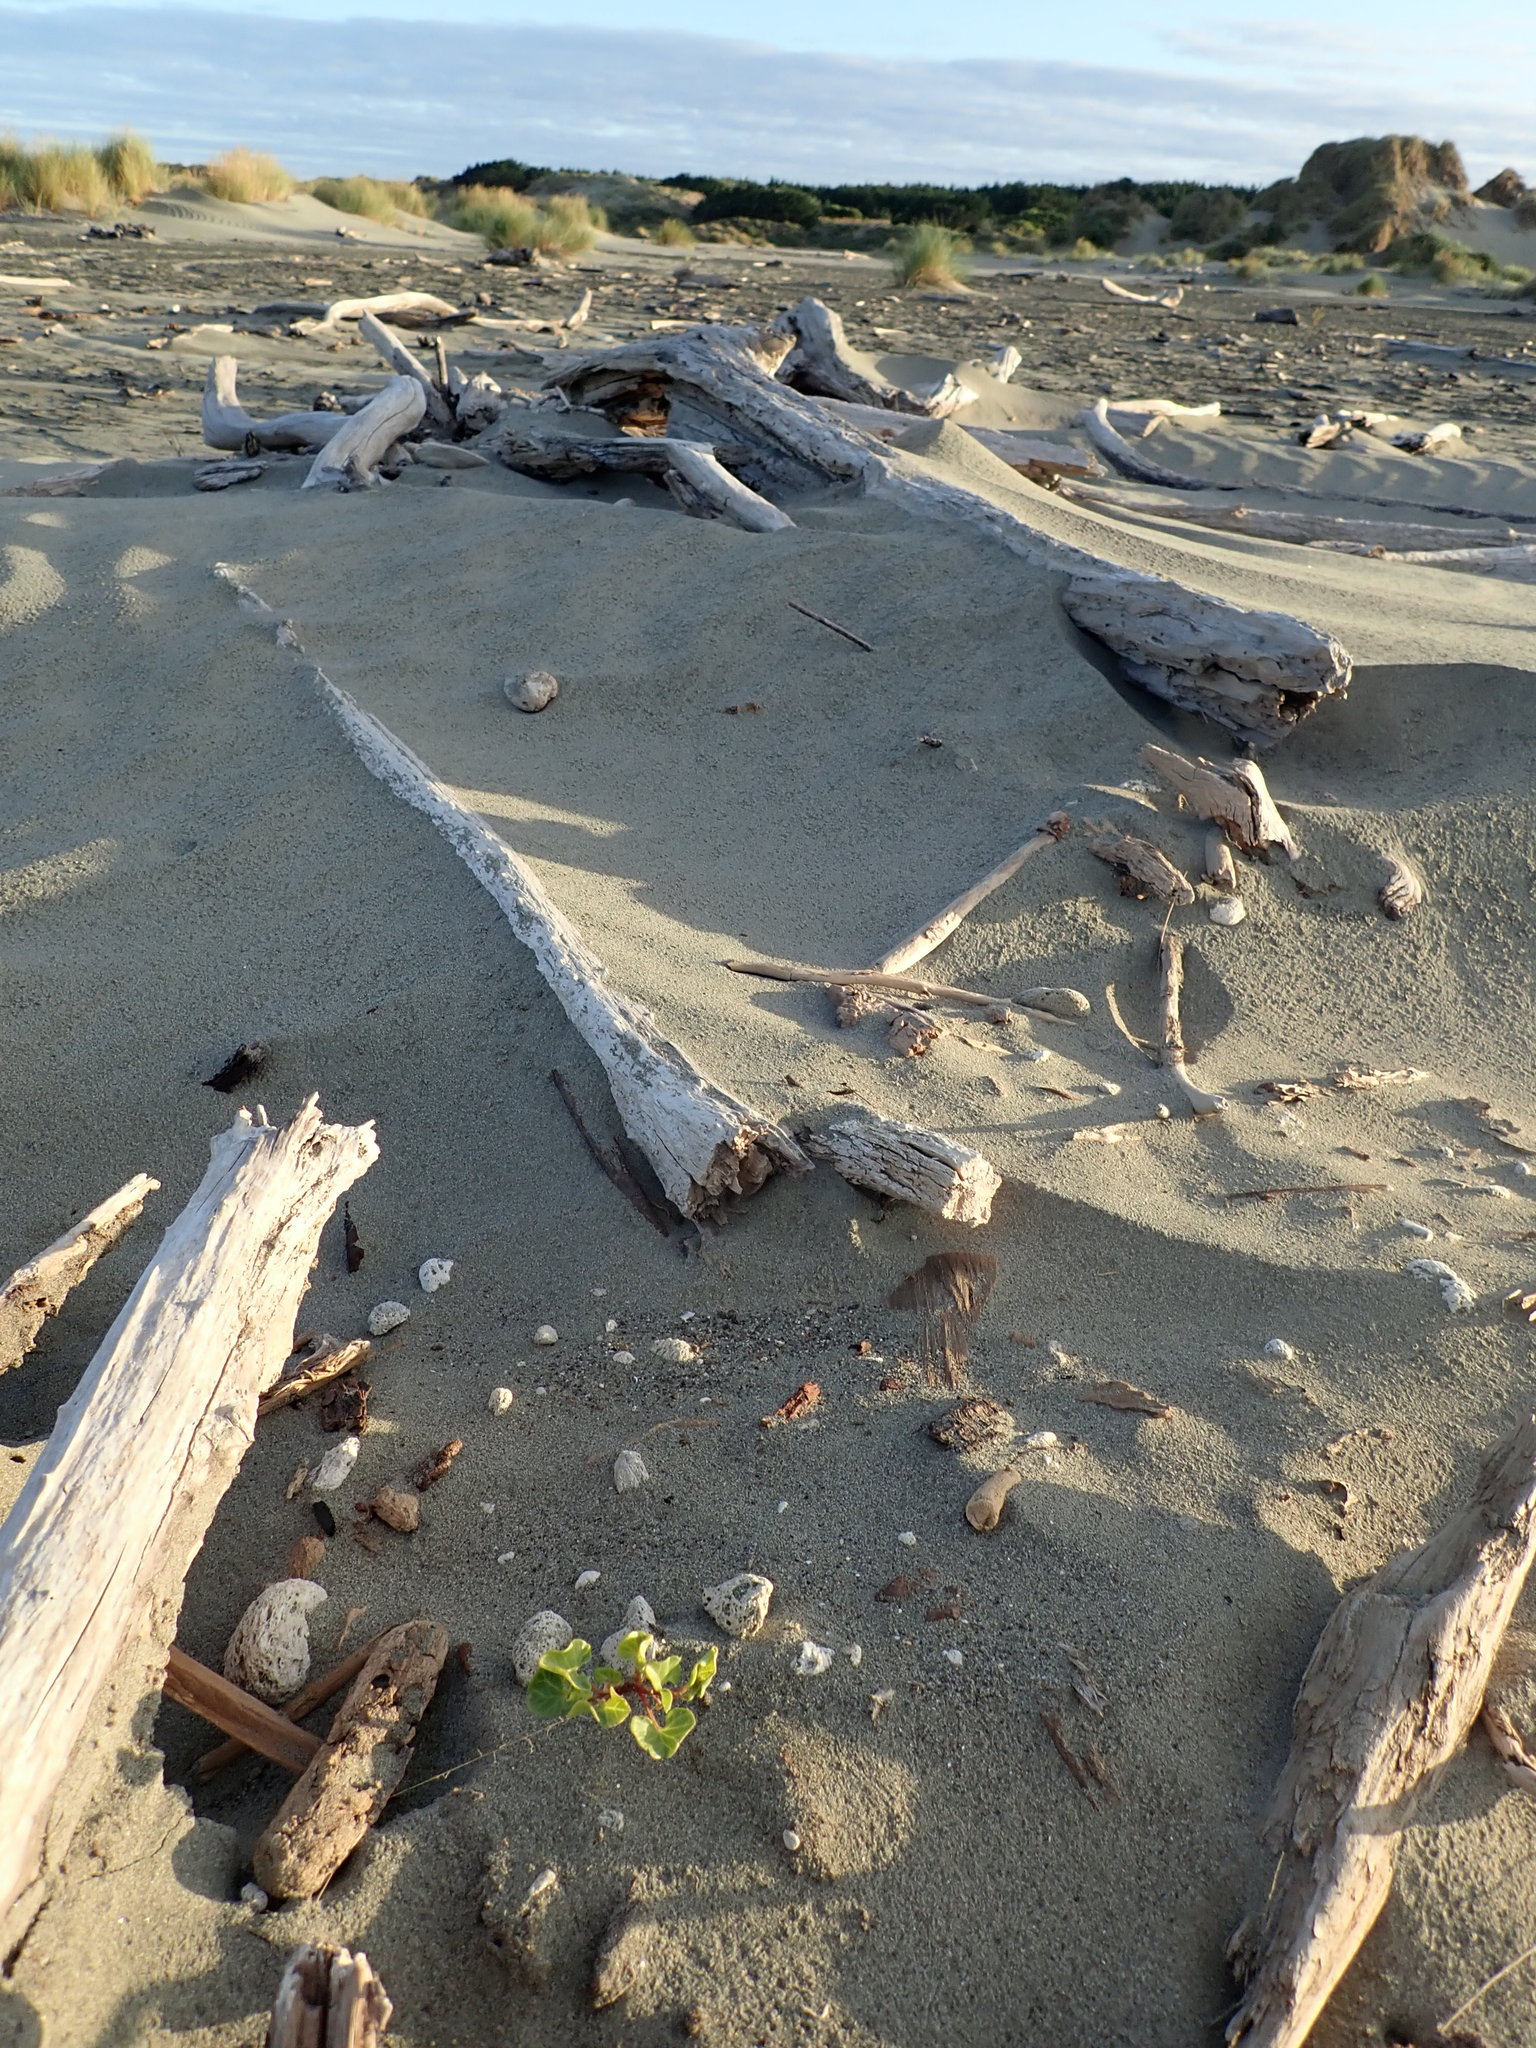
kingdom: Plantae
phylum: Tracheophyta
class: Magnoliopsida
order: Solanales
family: Convolvulaceae
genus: Calystegia
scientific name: Calystegia soldanella
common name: Sea bindweed
